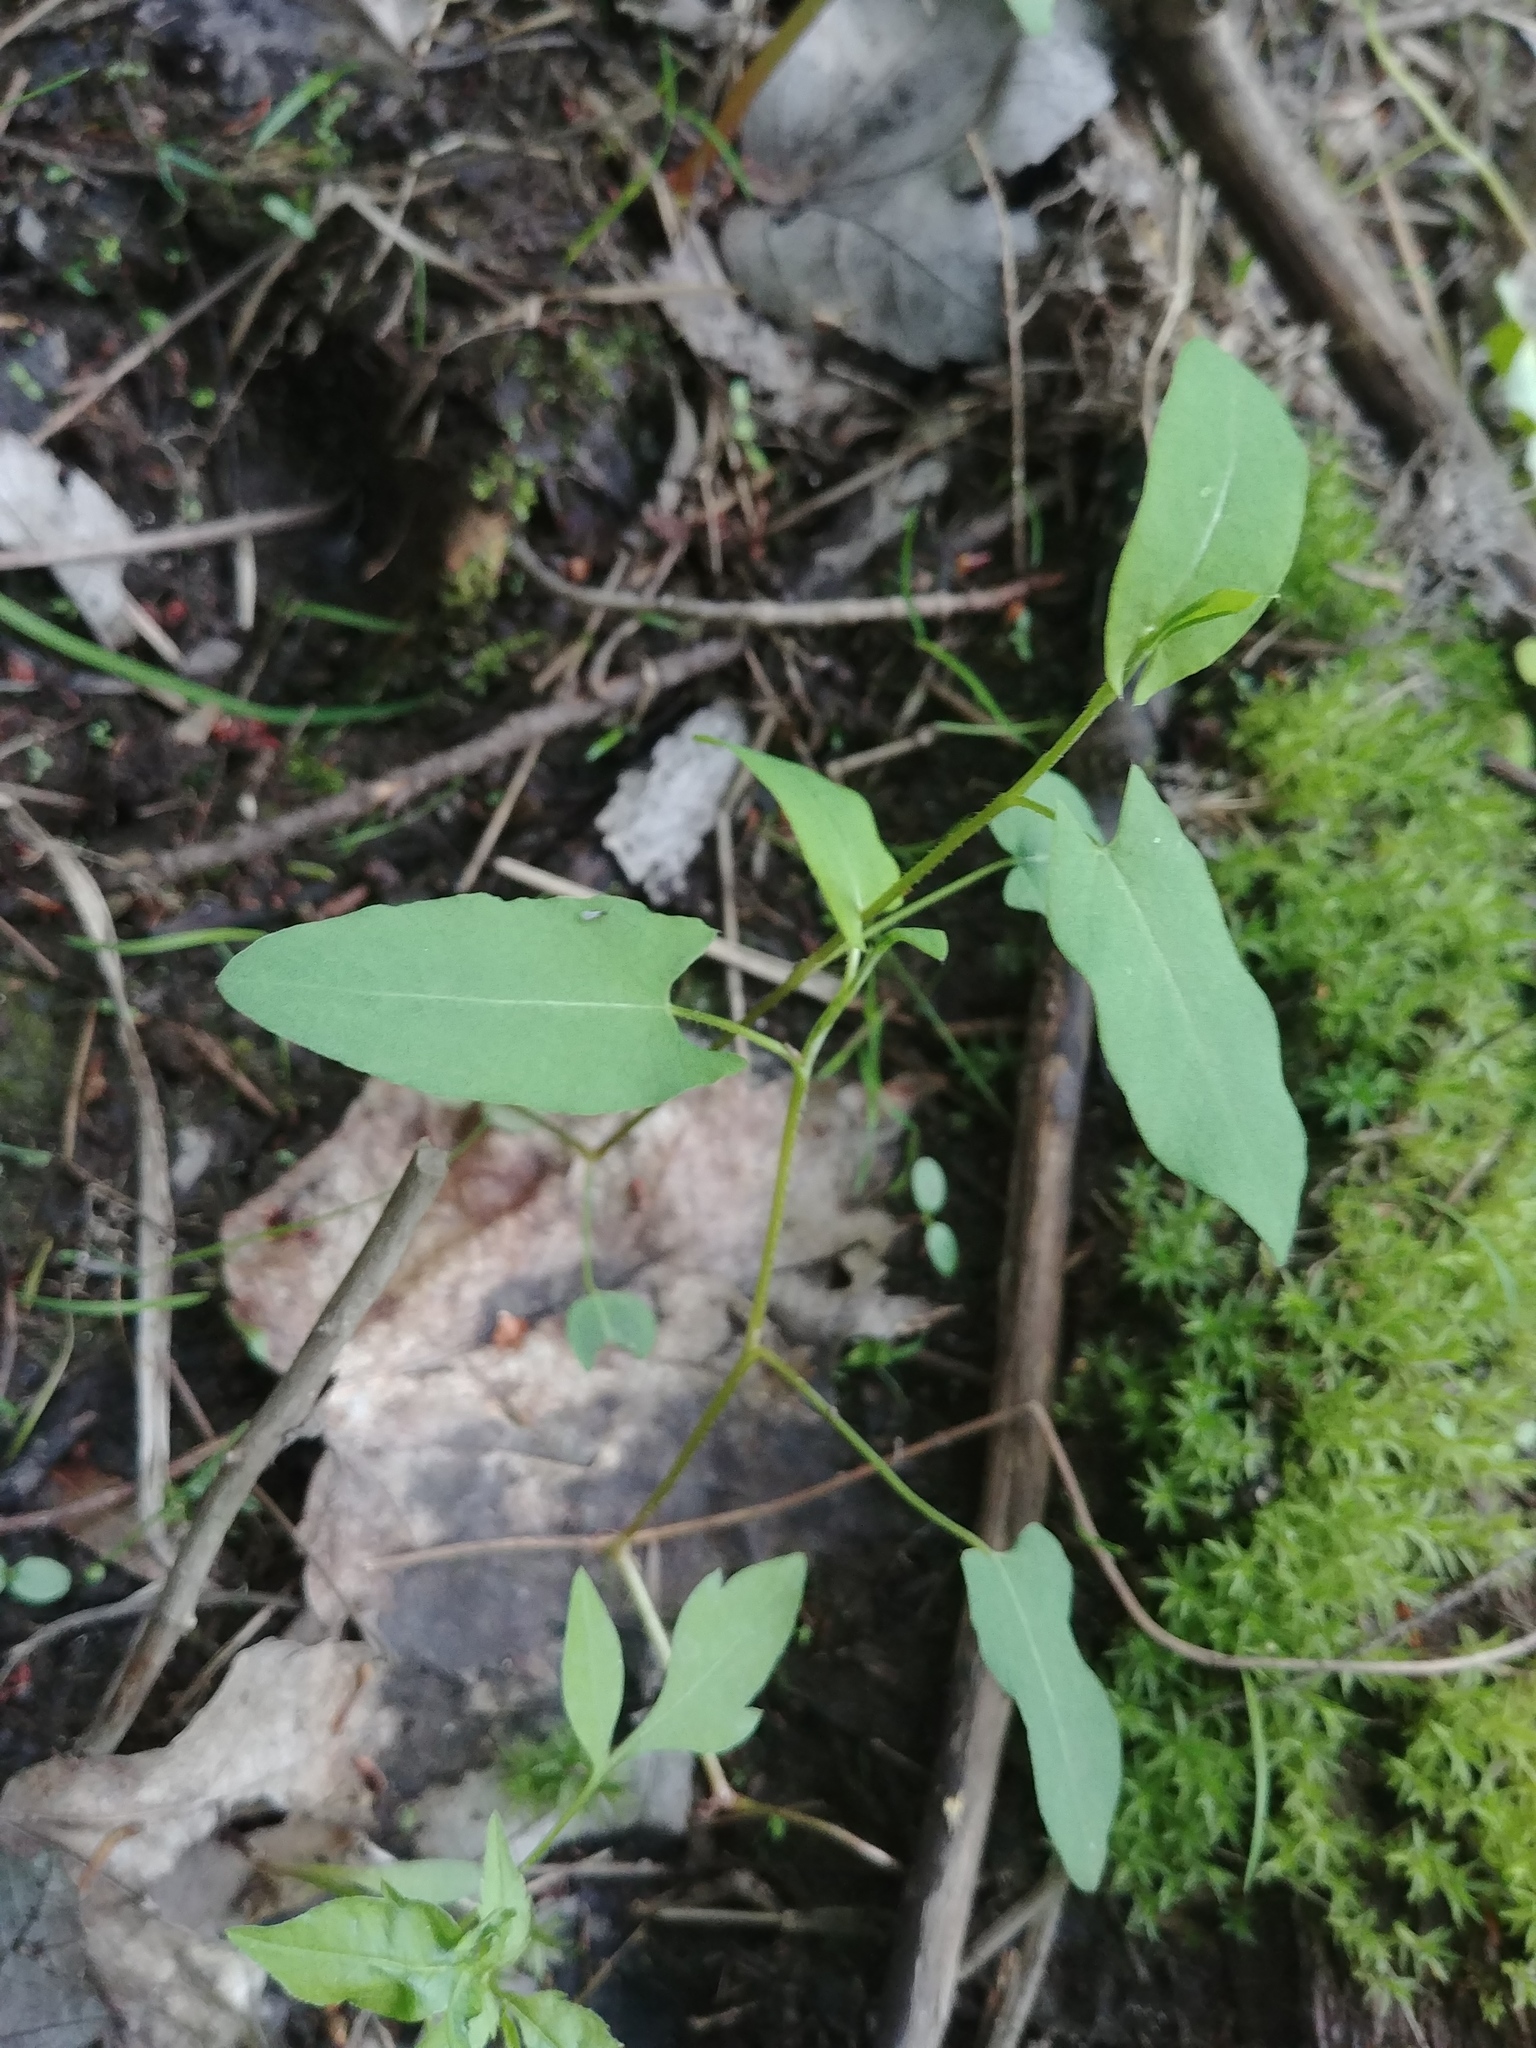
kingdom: Plantae
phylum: Tracheophyta
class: Magnoliopsida
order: Caryophyllales
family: Polygonaceae
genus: Persicaria
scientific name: Persicaria sagittata
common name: American tearthumb
